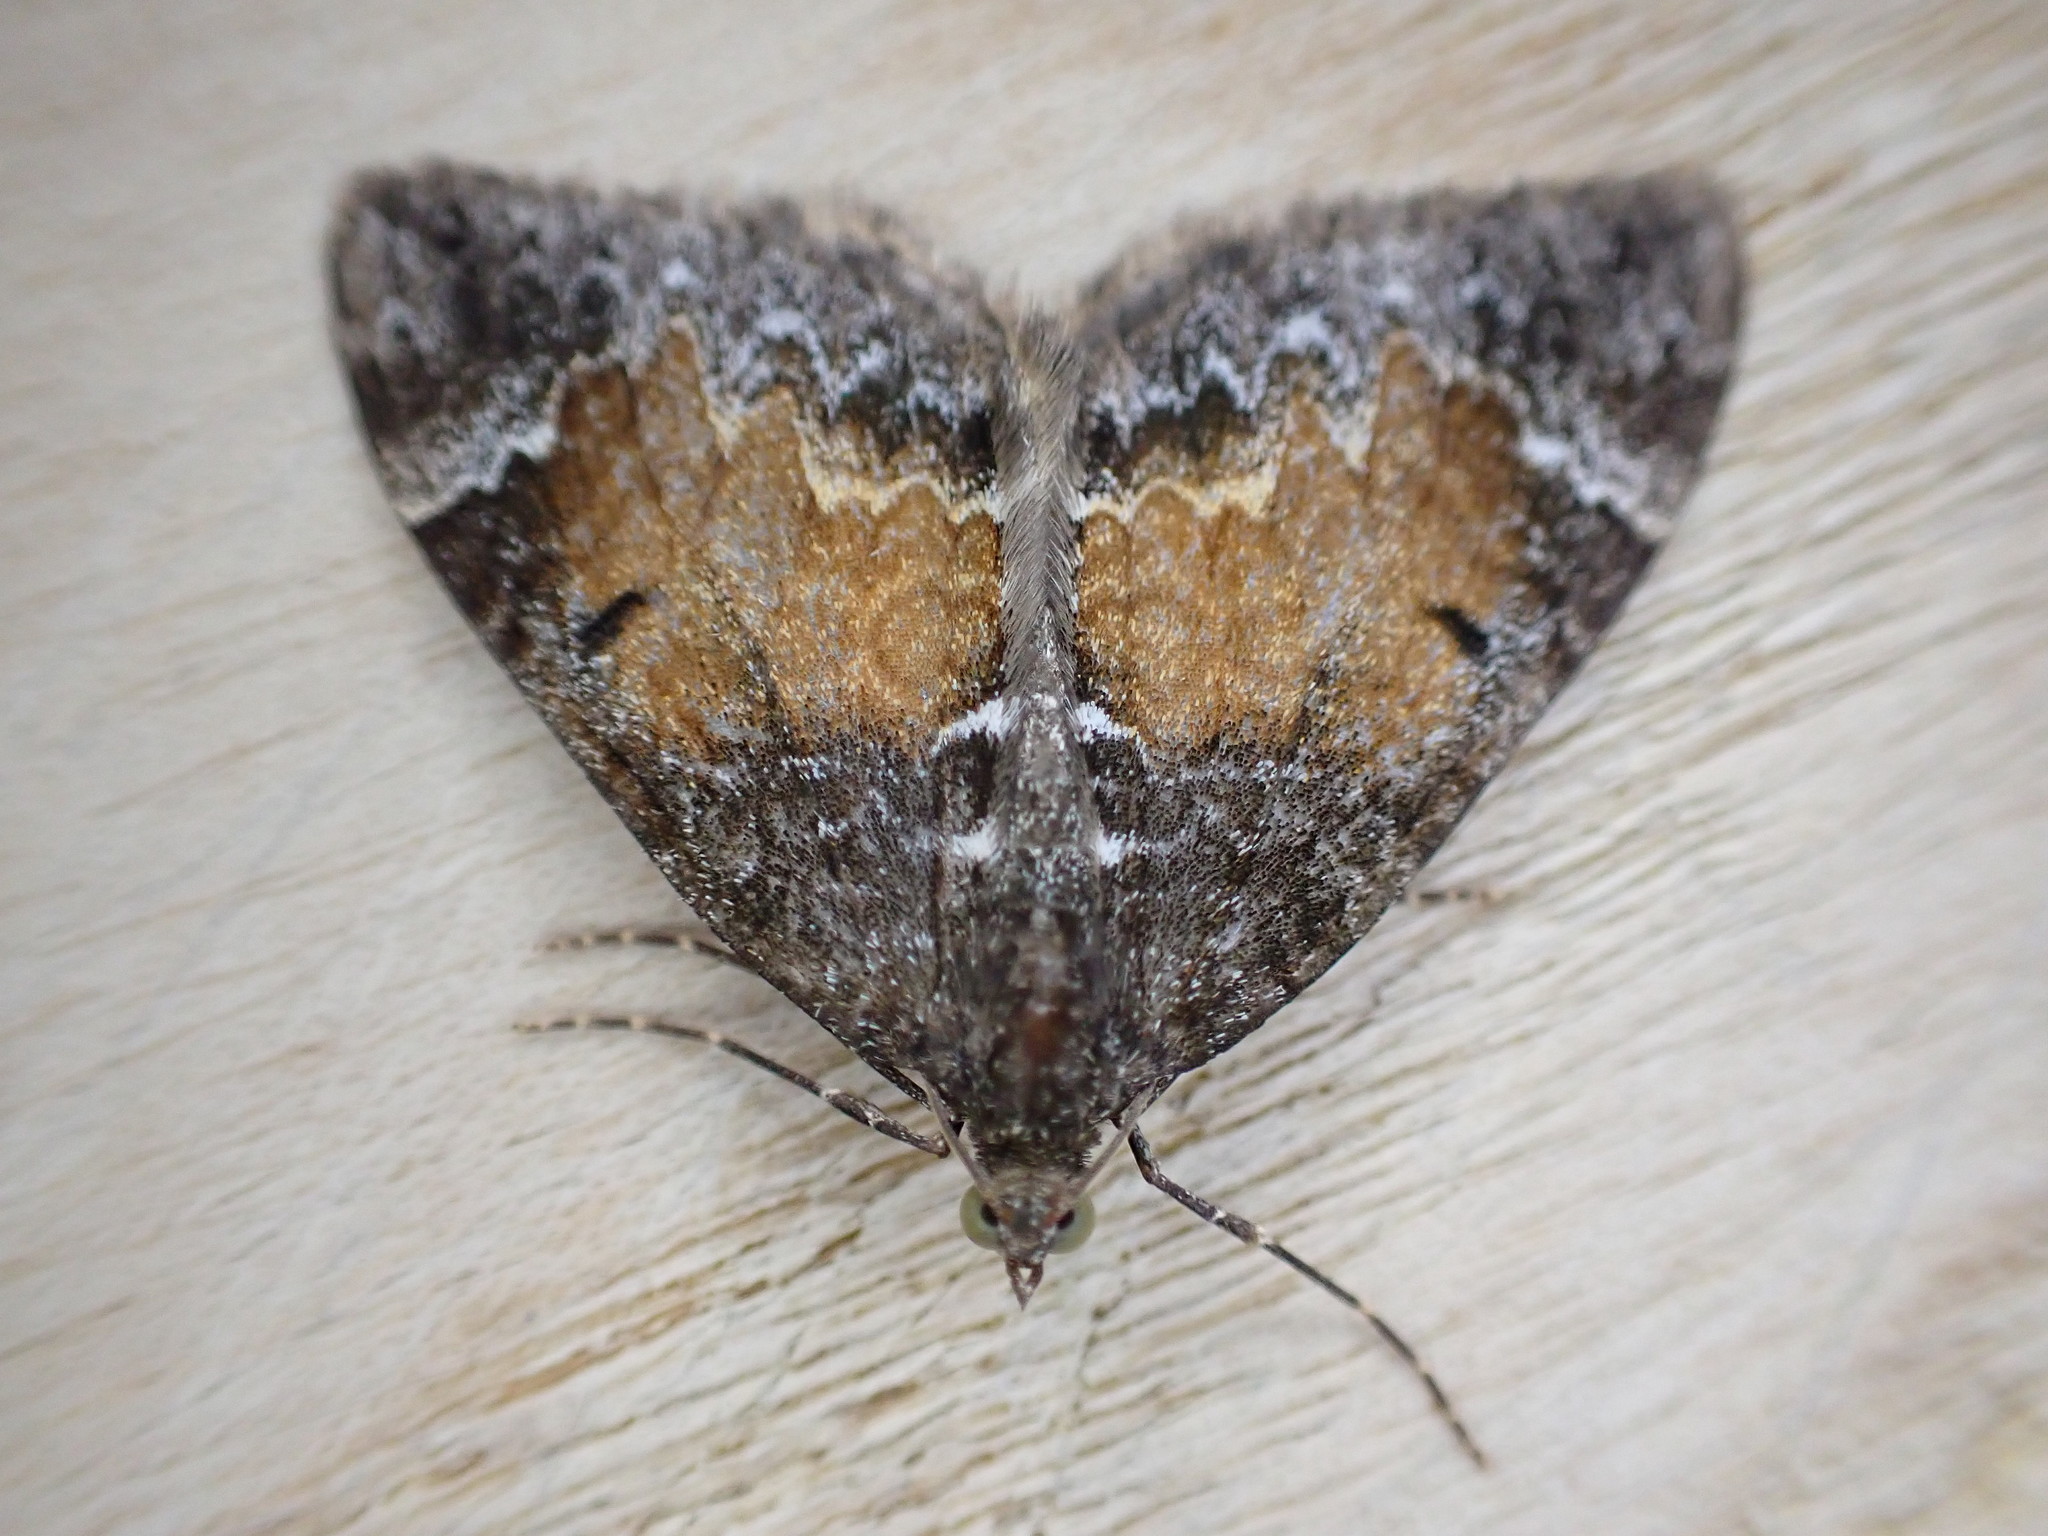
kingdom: Animalia
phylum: Arthropoda
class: Insecta
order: Lepidoptera
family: Geometridae
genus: Dysstroma
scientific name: Dysstroma truncata
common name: Common marbled carpet
